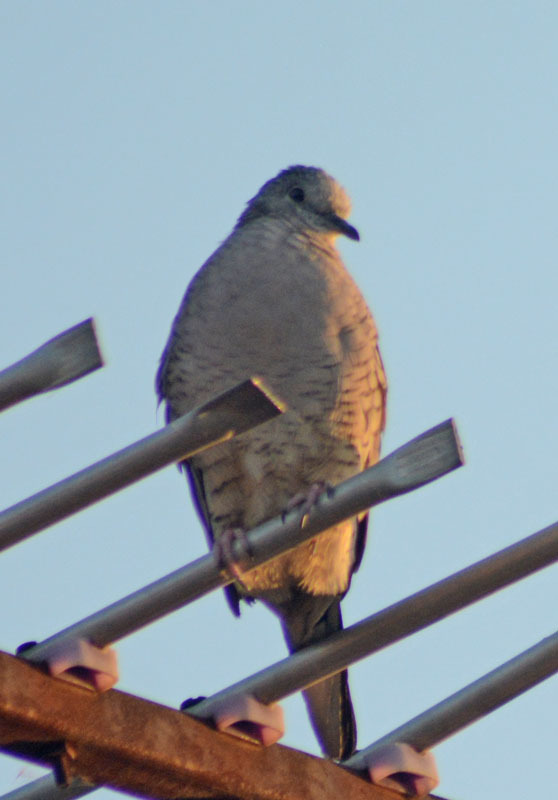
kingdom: Animalia
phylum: Chordata
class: Aves
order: Columbiformes
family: Columbidae
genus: Columbina
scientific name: Columbina inca
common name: Inca dove
